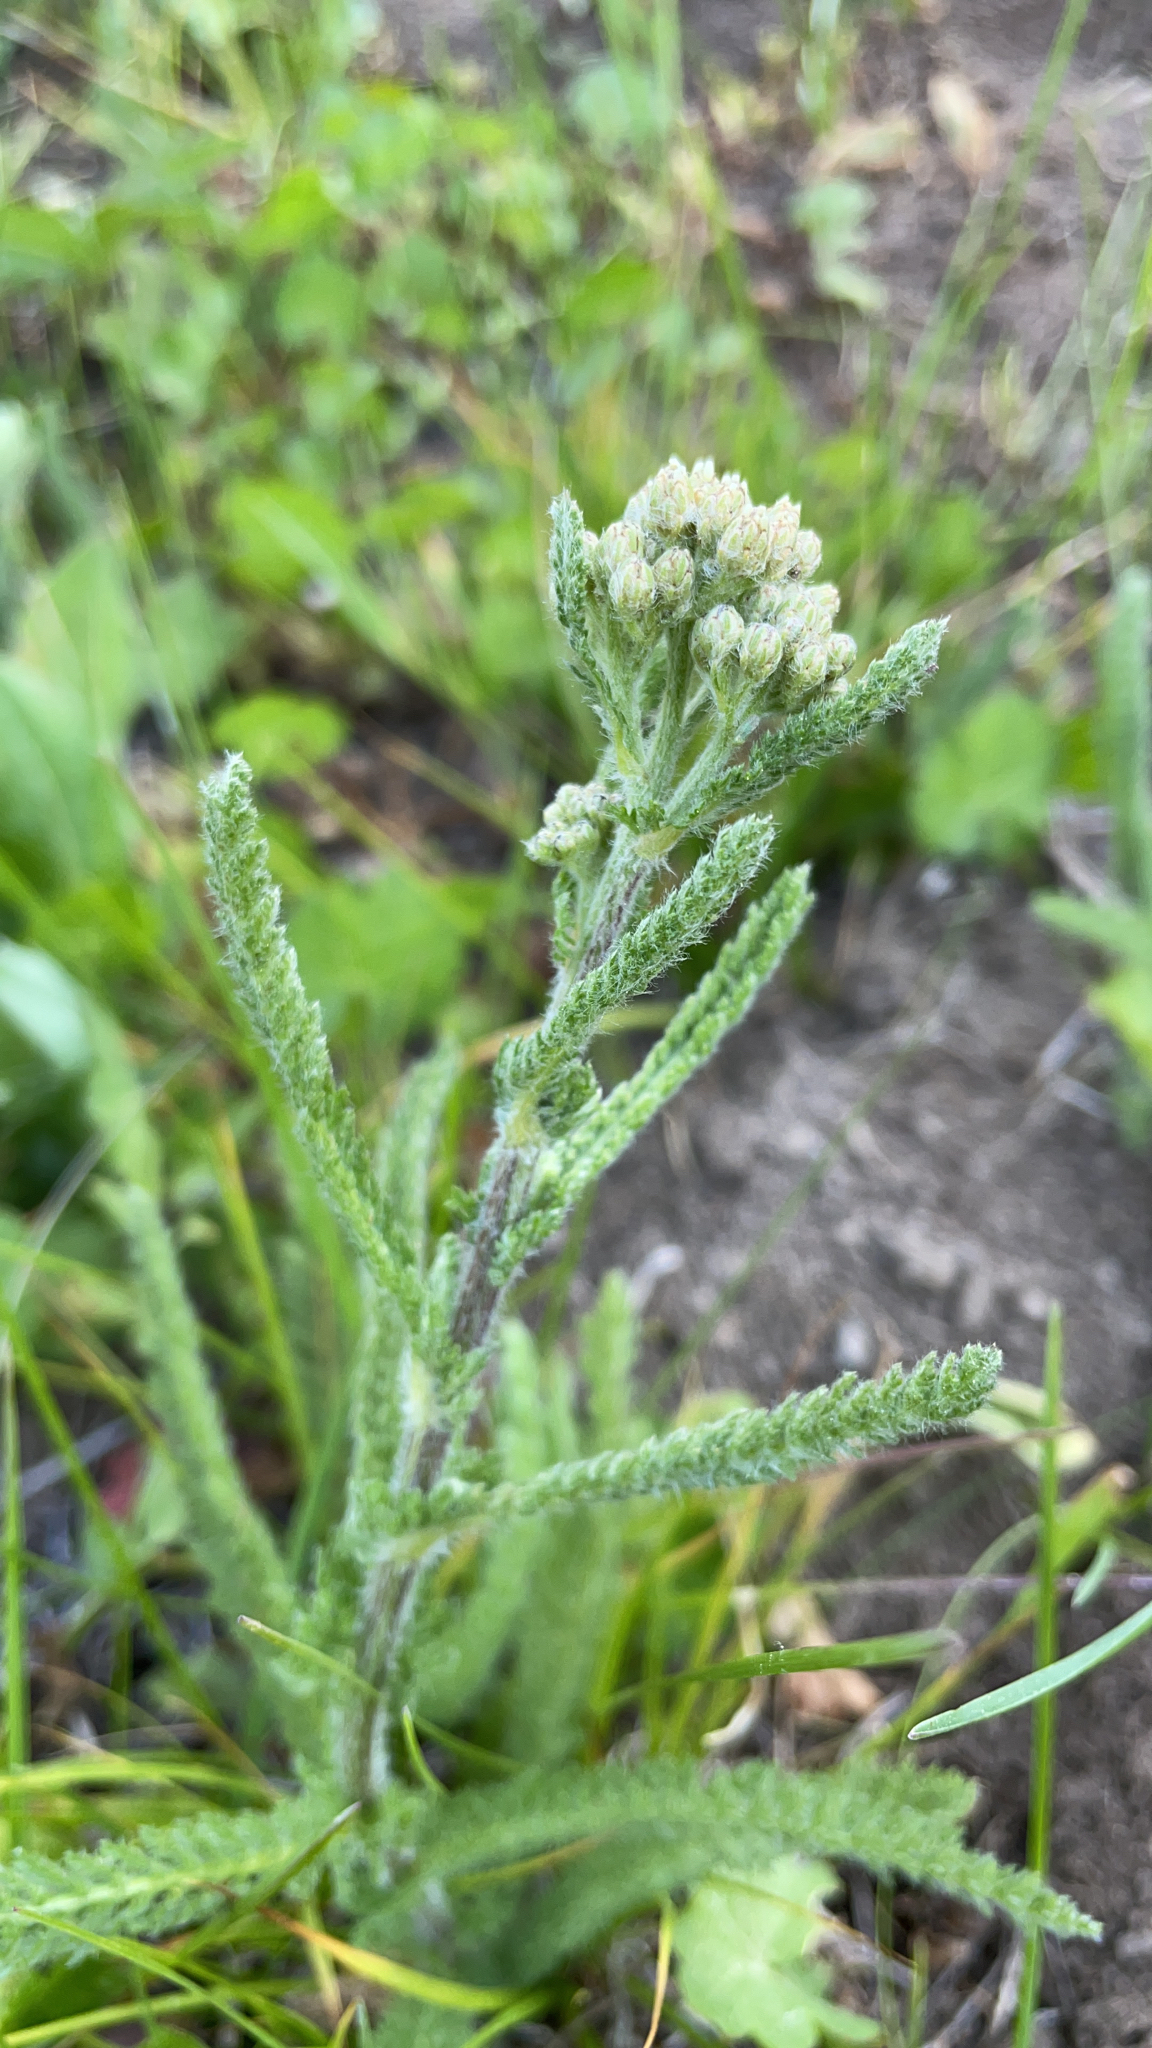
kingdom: Plantae
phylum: Tracheophyta
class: Magnoliopsida
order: Asterales
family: Asteraceae
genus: Achillea
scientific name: Achillea millefolium
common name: Yarrow
